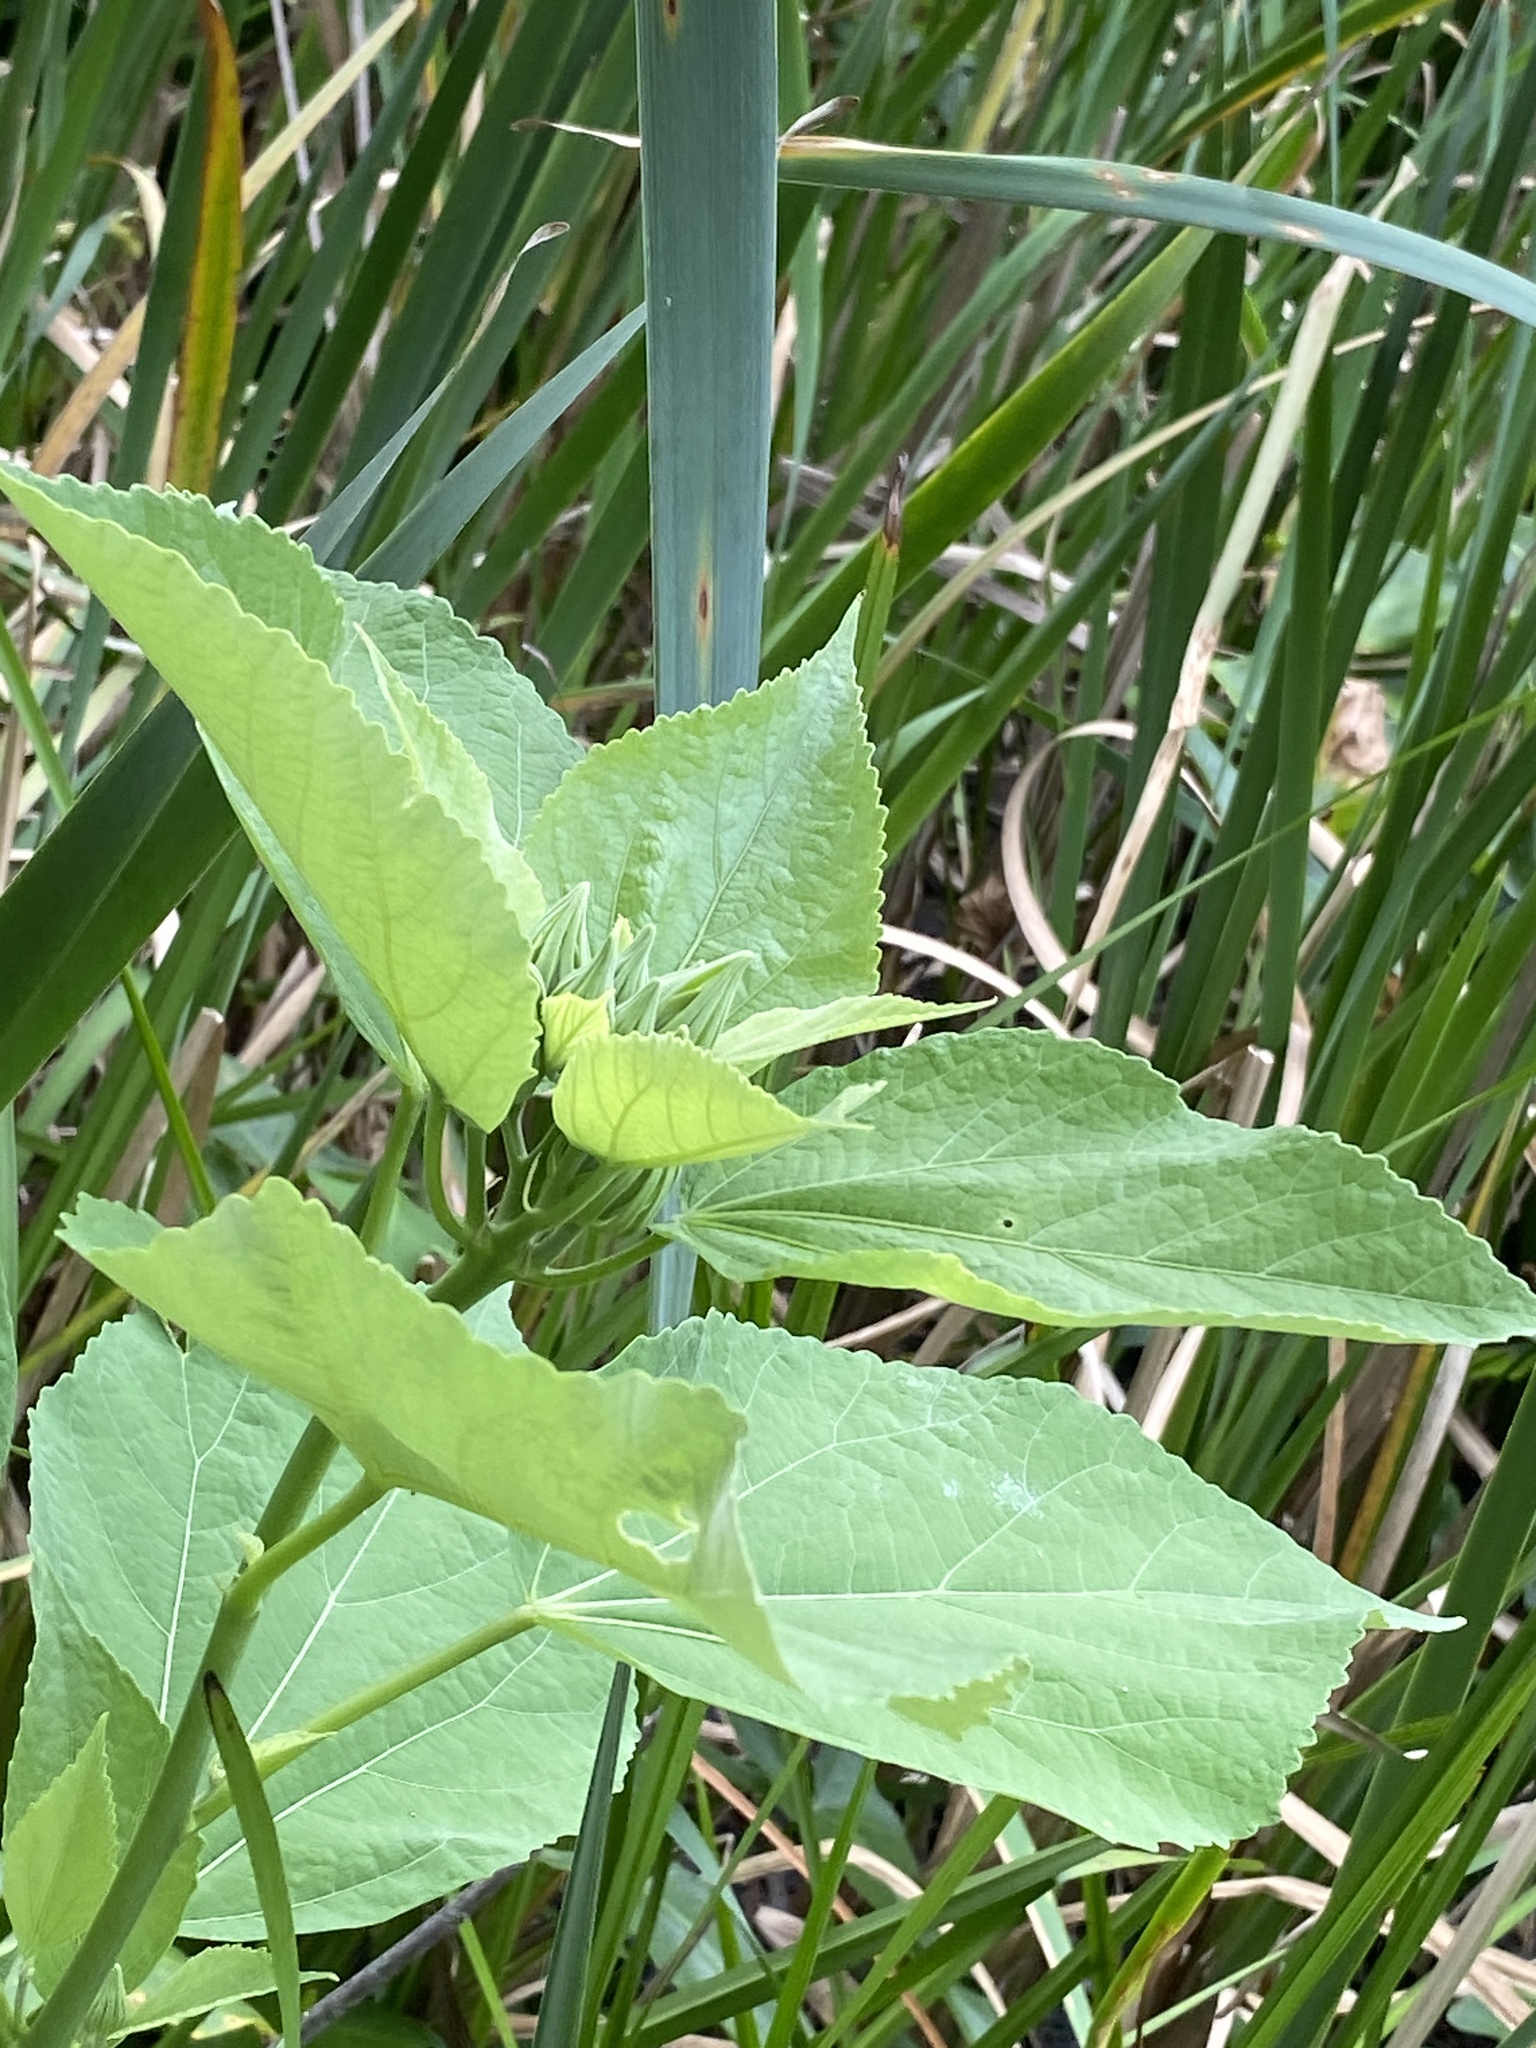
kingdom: Plantae
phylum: Tracheophyta
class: Magnoliopsida
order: Malvales
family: Malvaceae
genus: Hibiscus
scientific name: Hibiscus moscheutos
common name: Common rose-mallow
